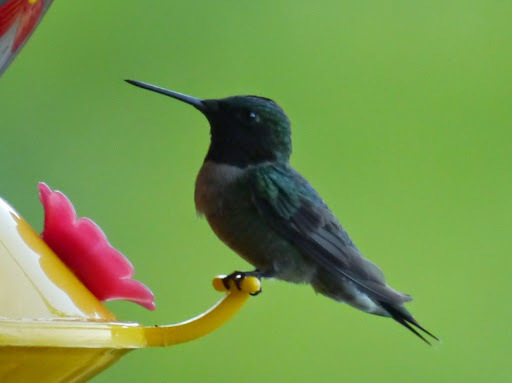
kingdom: Animalia
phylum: Chordata
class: Aves
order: Apodiformes
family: Trochilidae
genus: Archilochus
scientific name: Archilochus colubris
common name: Ruby-throated hummingbird
